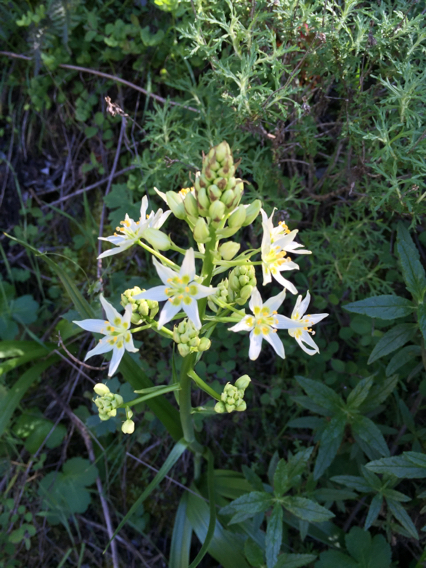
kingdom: Plantae
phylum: Tracheophyta
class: Liliopsida
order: Liliales
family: Melanthiaceae
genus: Toxicoscordion
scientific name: Toxicoscordion fremontii
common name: Fremont's death camas
